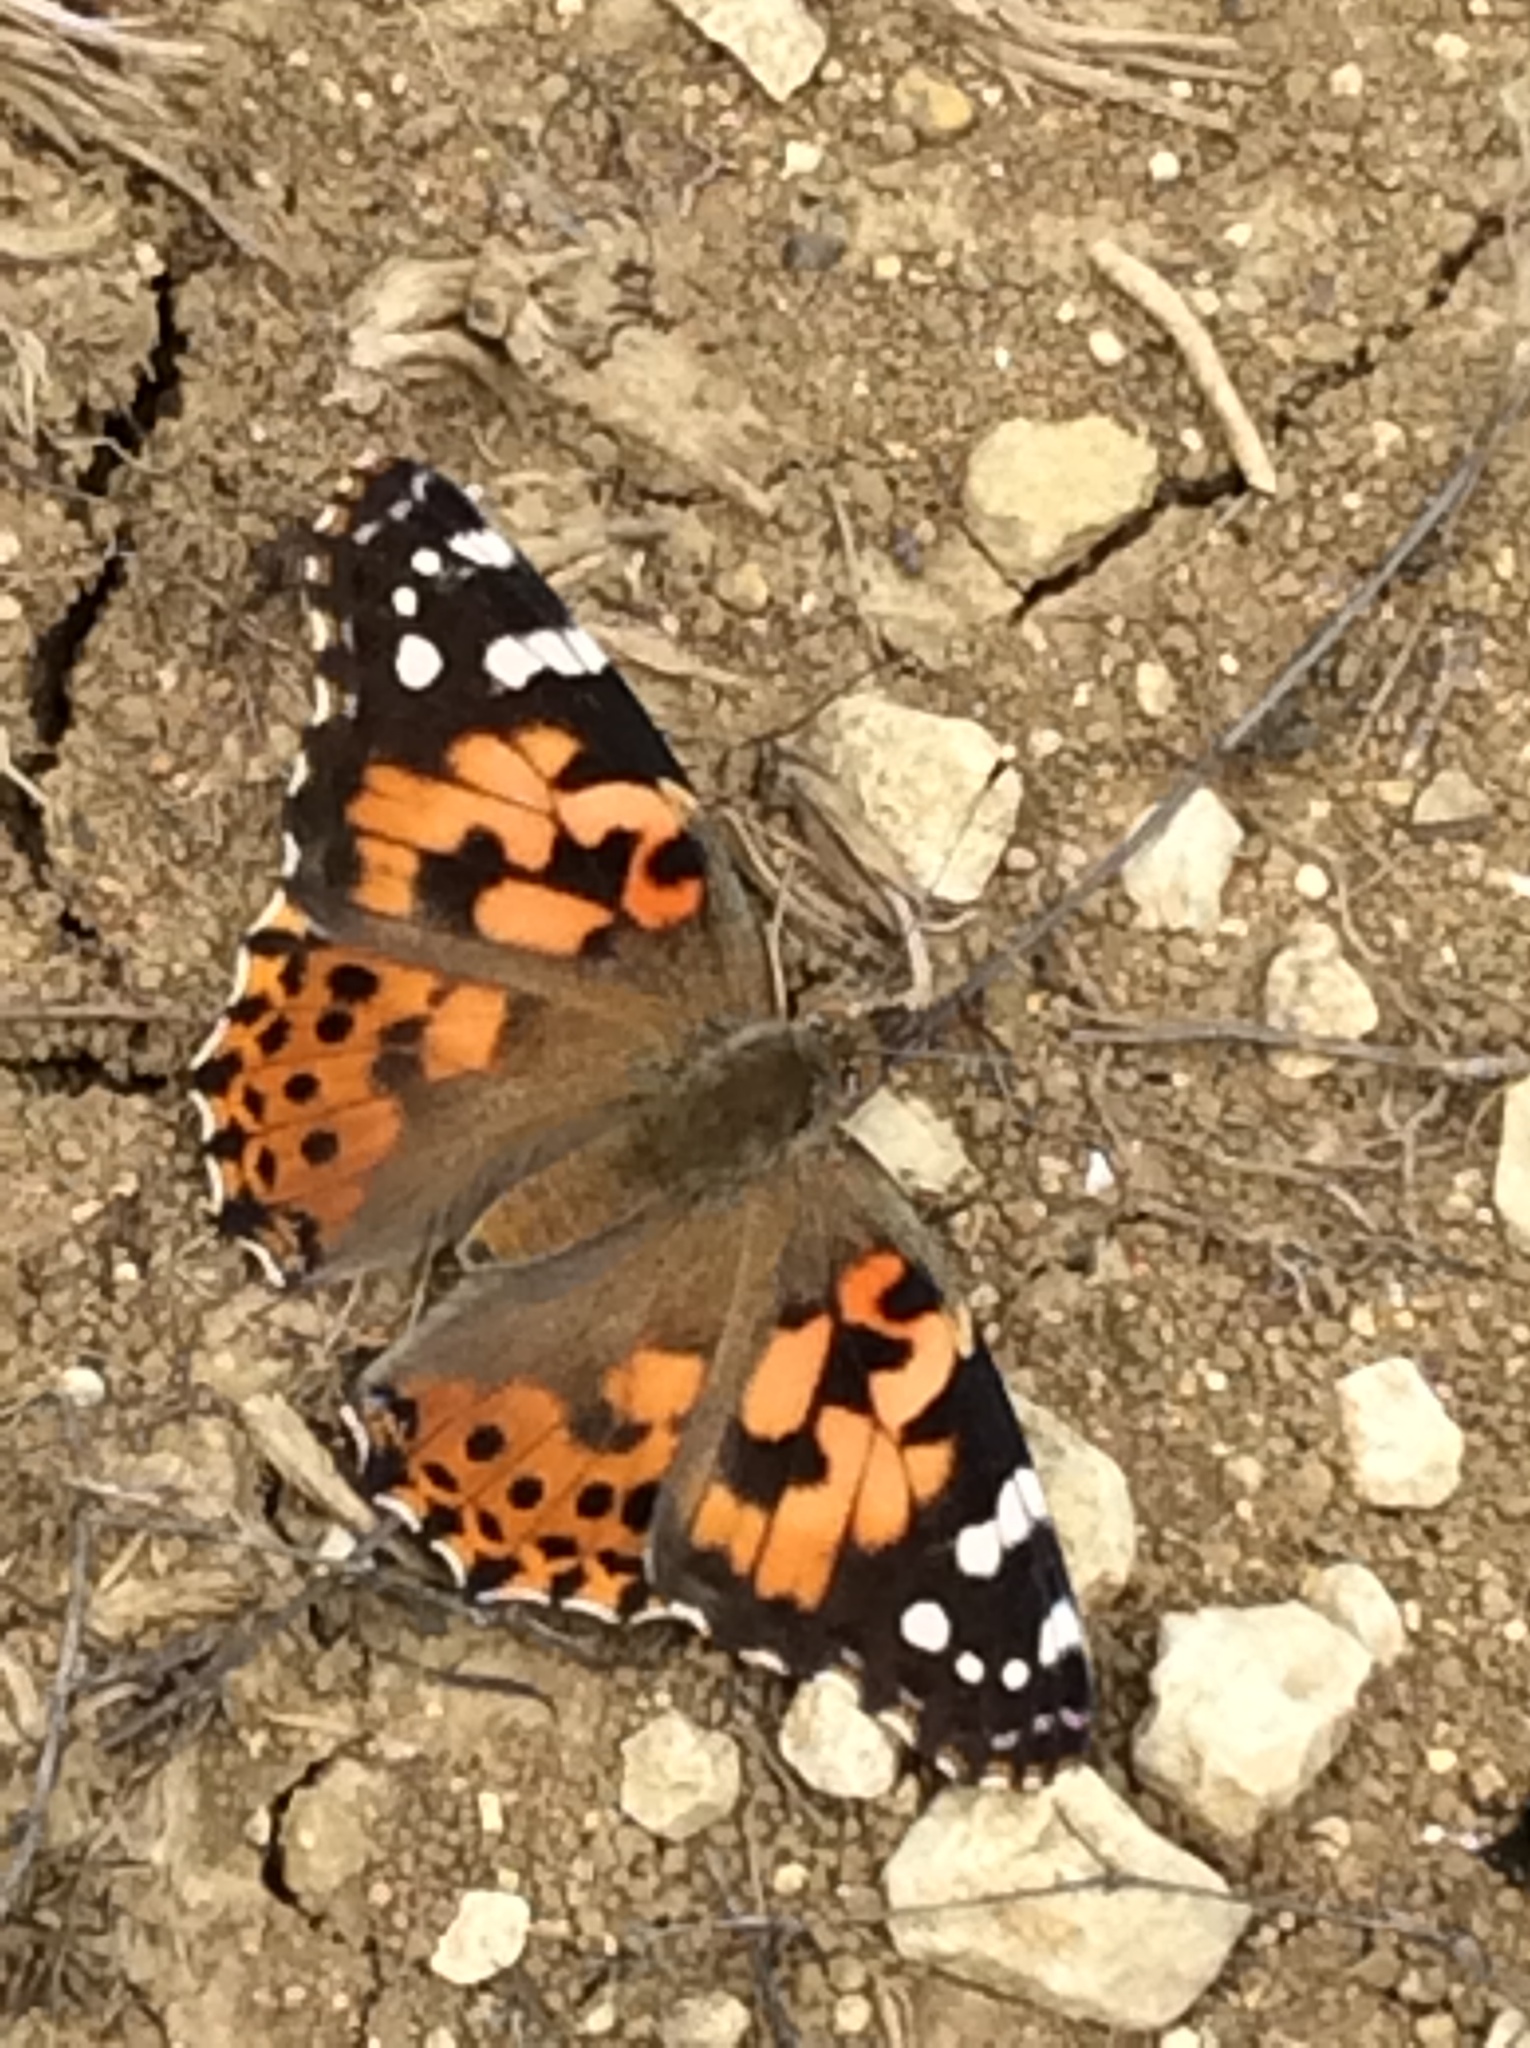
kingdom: Animalia
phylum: Arthropoda
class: Insecta
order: Lepidoptera
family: Nymphalidae
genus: Vanessa
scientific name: Vanessa cardui
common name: Painted lady
